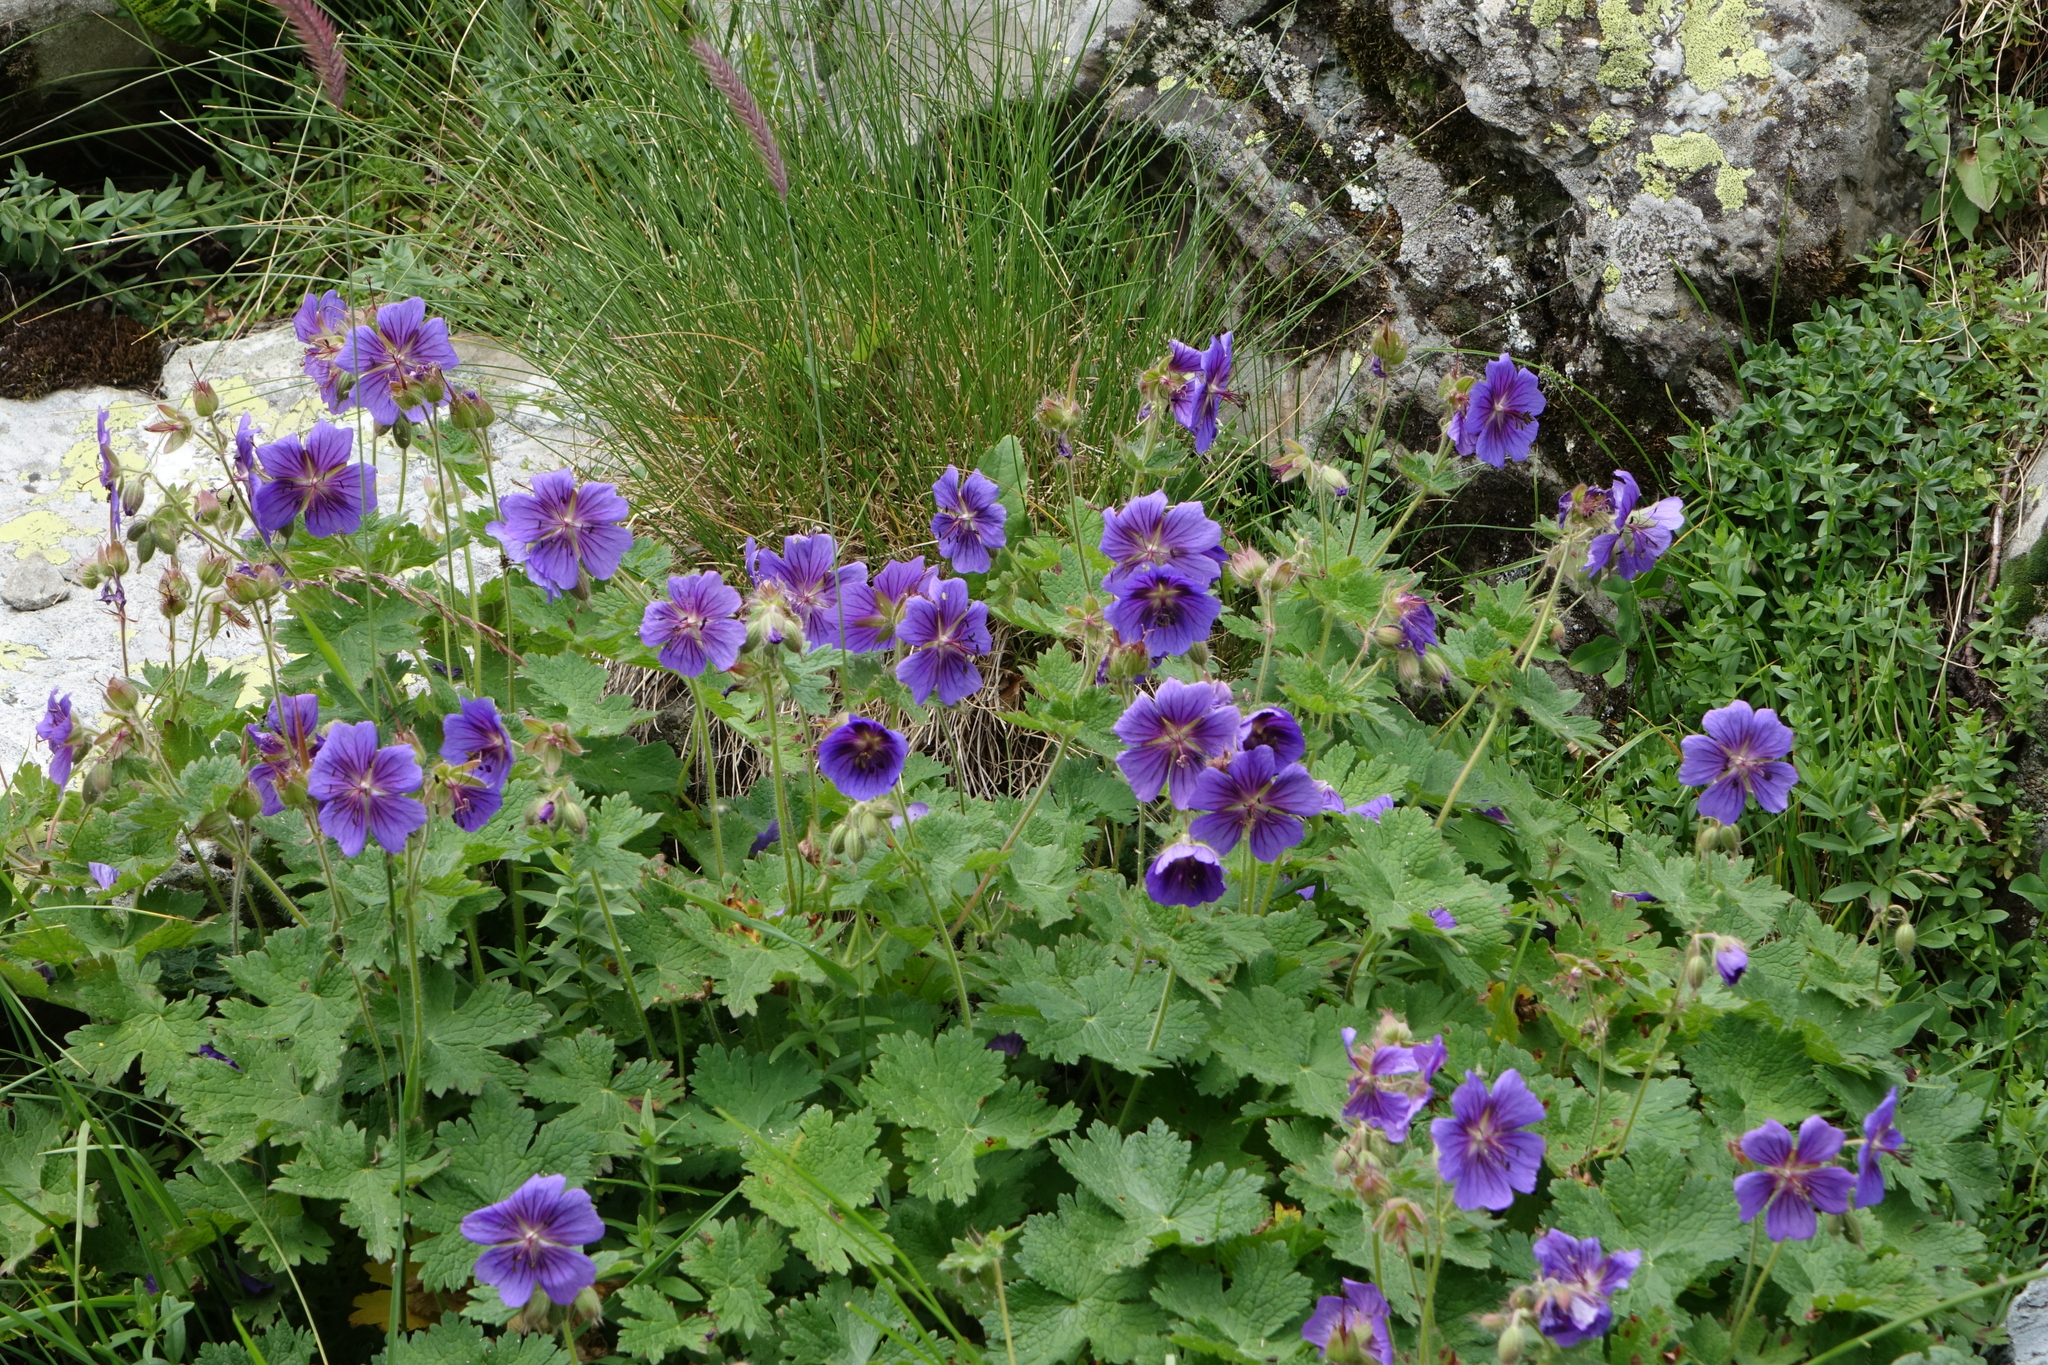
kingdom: Plantae
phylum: Tracheophyta
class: Magnoliopsida
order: Geraniales
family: Geraniaceae
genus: Geranium
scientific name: Geranium platypetalum
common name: Glandular crane's-bill
